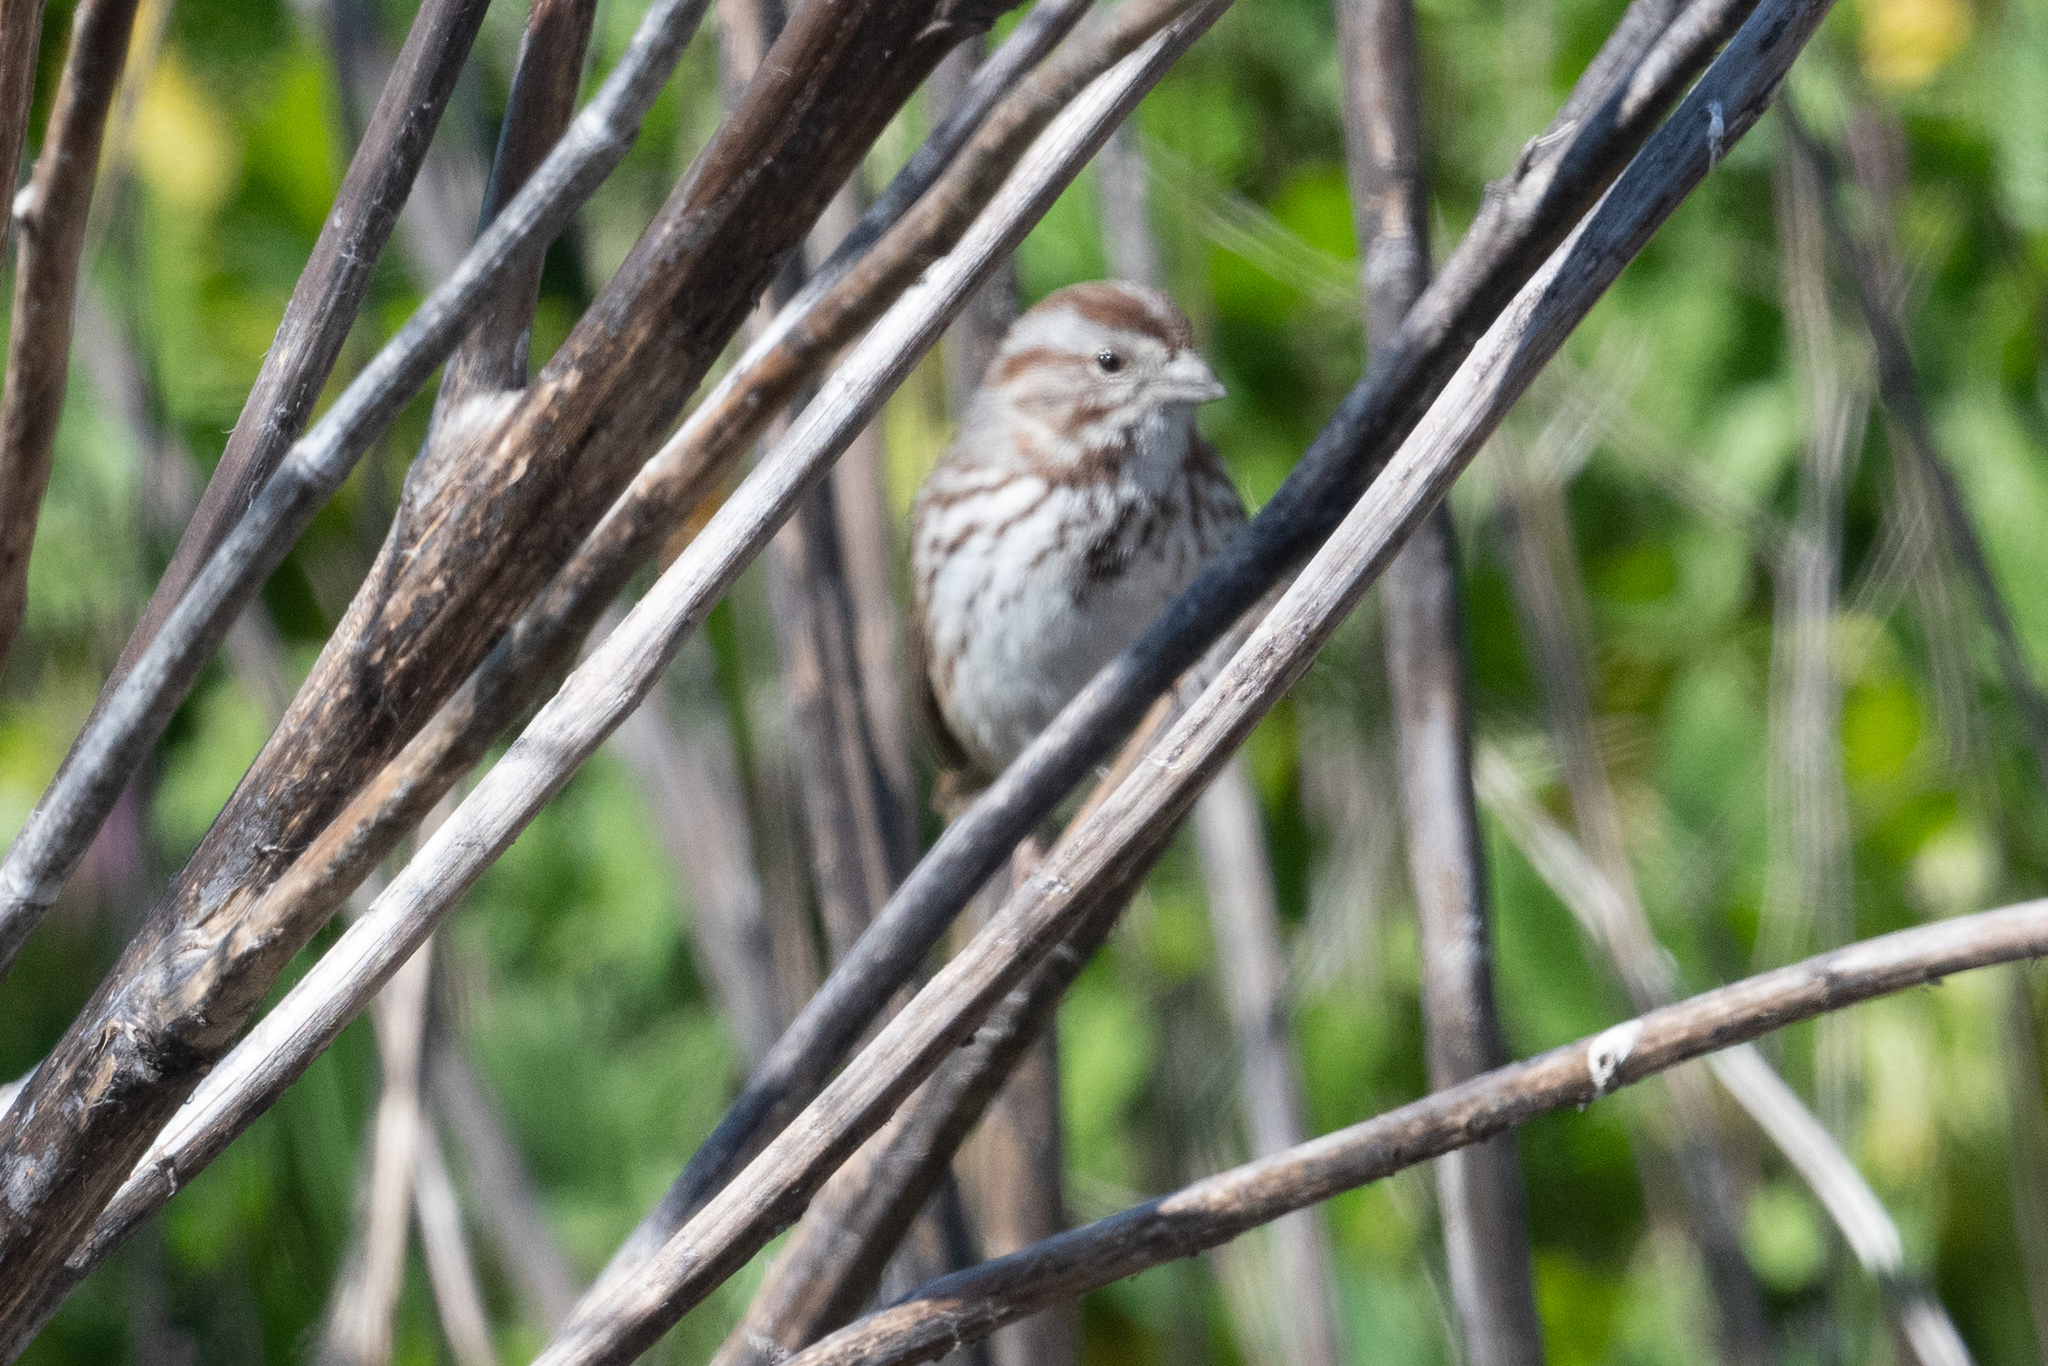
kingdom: Animalia
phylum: Chordata
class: Aves
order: Passeriformes
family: Passerellidae
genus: Melospiza
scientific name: Melospiza melodia
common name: Song sparrow
